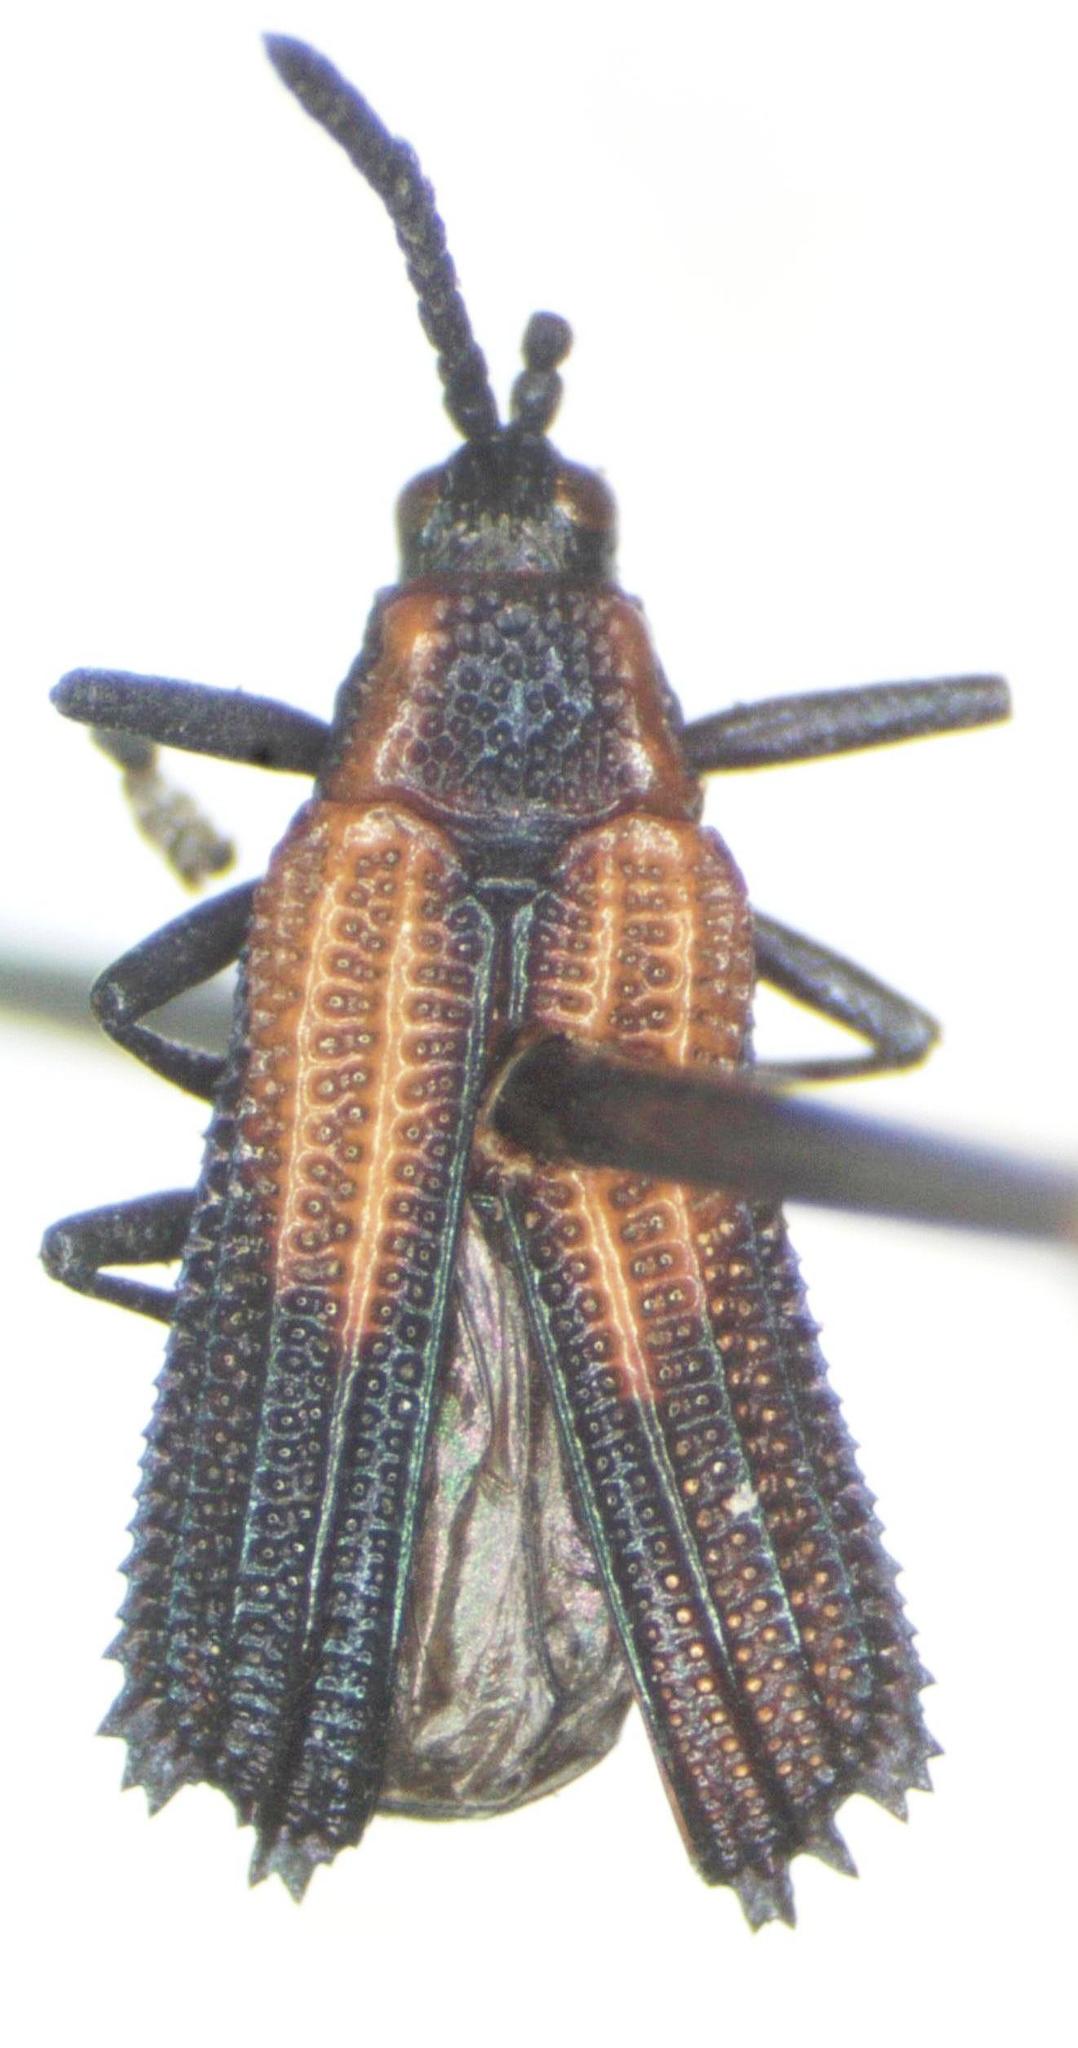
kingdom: Animalia
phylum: Arthropoda
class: Insecta
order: Coleoptera
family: Chrysomelidae
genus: Pentispa
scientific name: Pentispa clarkella
